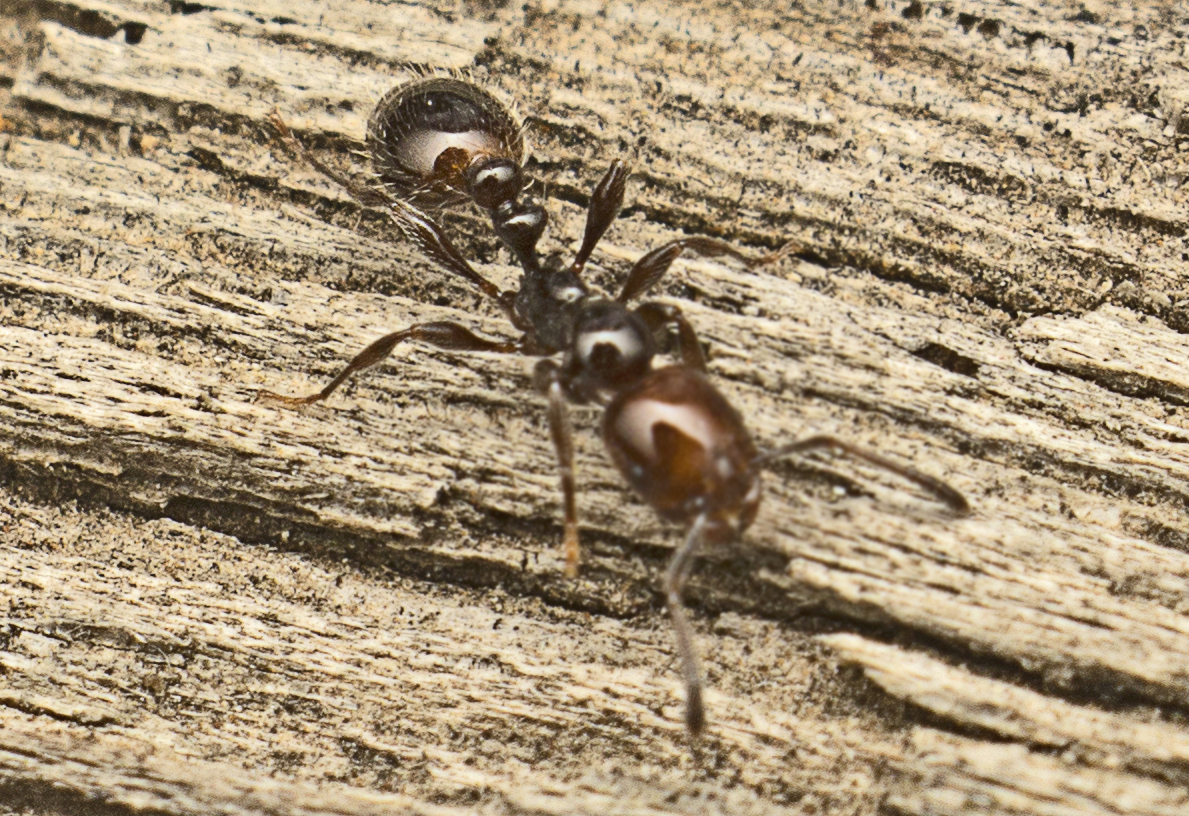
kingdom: Animalia
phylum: Arthropoda
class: Insecta
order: Hymenoptera
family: Formicidae
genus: Chelaner
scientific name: Chelaner
